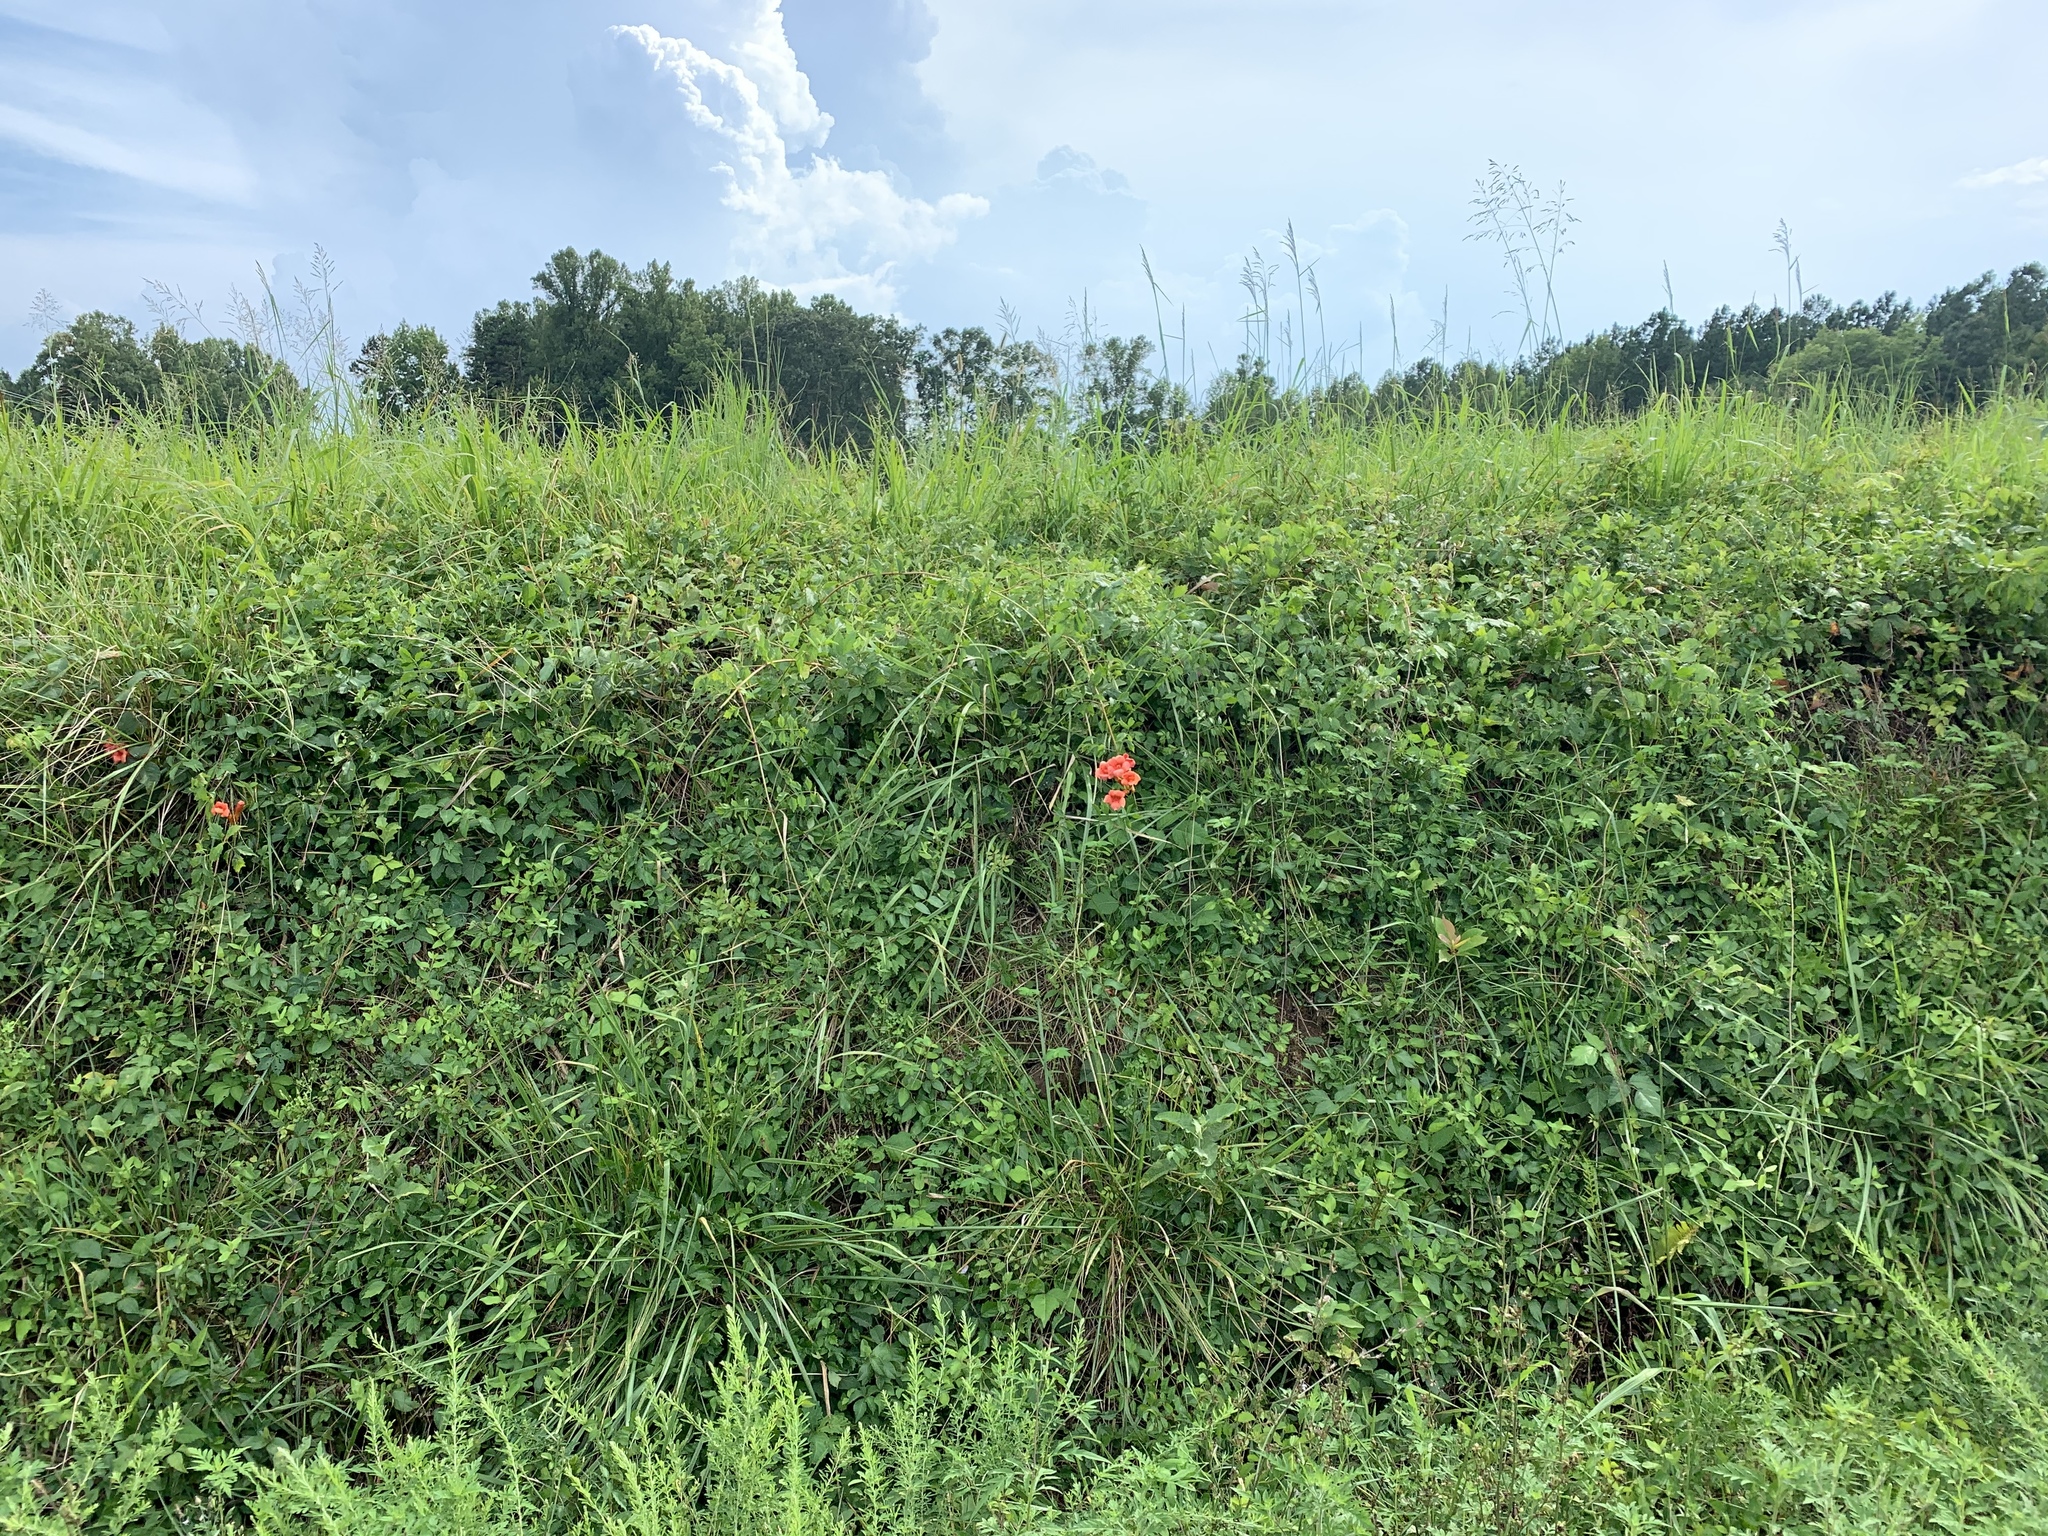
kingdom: Plantae
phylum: Tracheophyta
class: Magnoliopsida
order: Lamiales
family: Bignoniaceae
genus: Campsis
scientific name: Campsis radicans
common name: Trumpet-creeper
